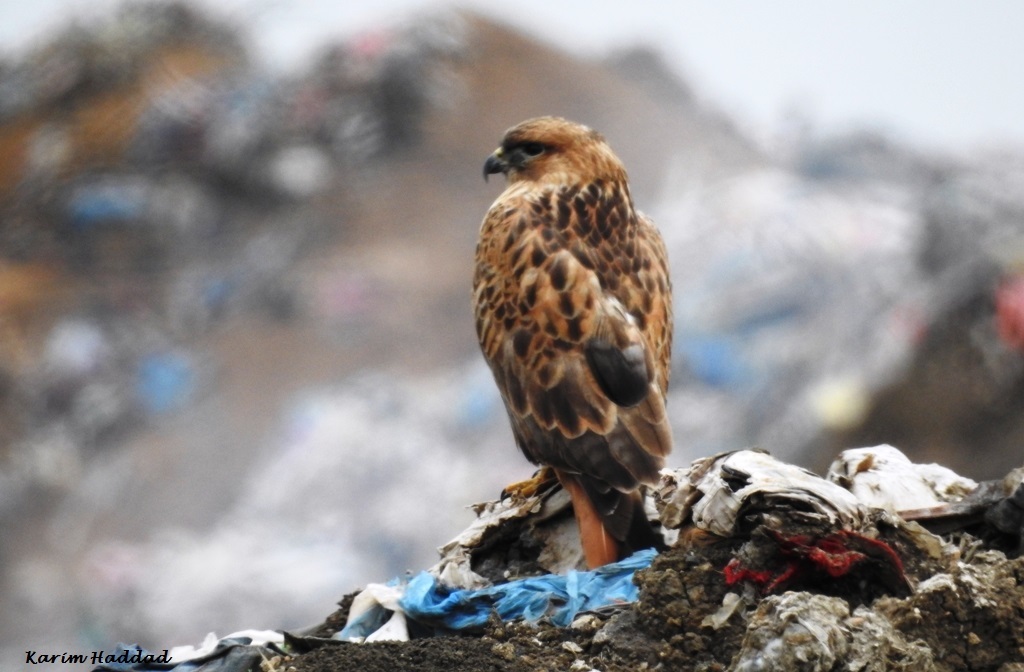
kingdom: Animalia
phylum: Chordata
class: Aves
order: Accipitriformes
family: Accipitridae
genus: Buteo
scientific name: Buteo rufinus
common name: Long-legged buzzard
